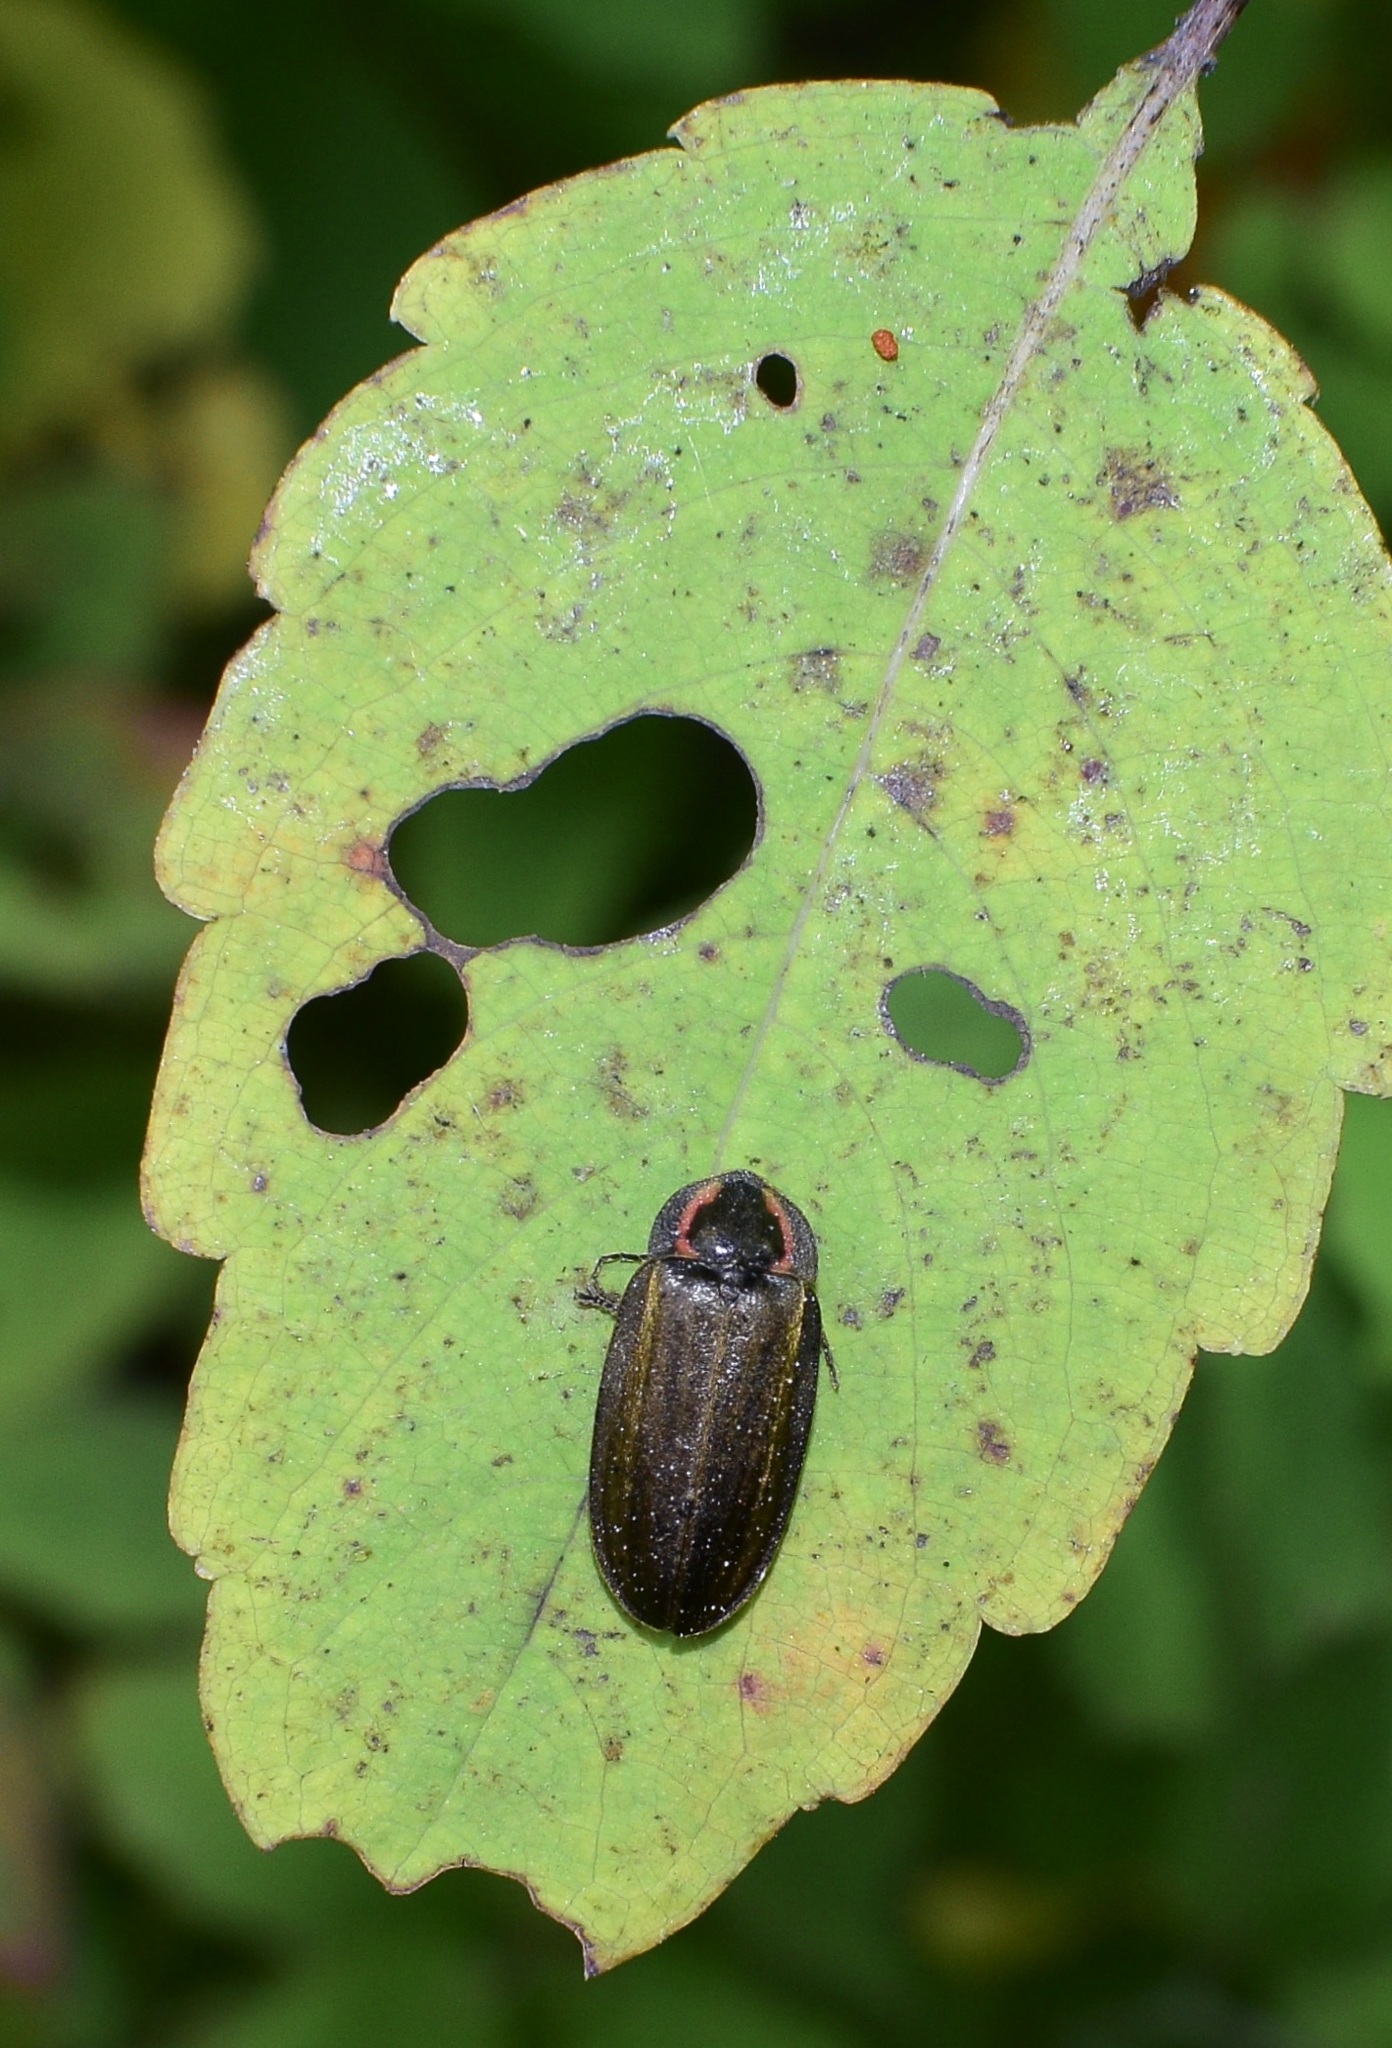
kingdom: Animalia
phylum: Arthropoda
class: Insecta
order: Coleoptera
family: Lampyridae
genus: Photinus
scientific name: Photinus corrusca
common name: Winter firefly
